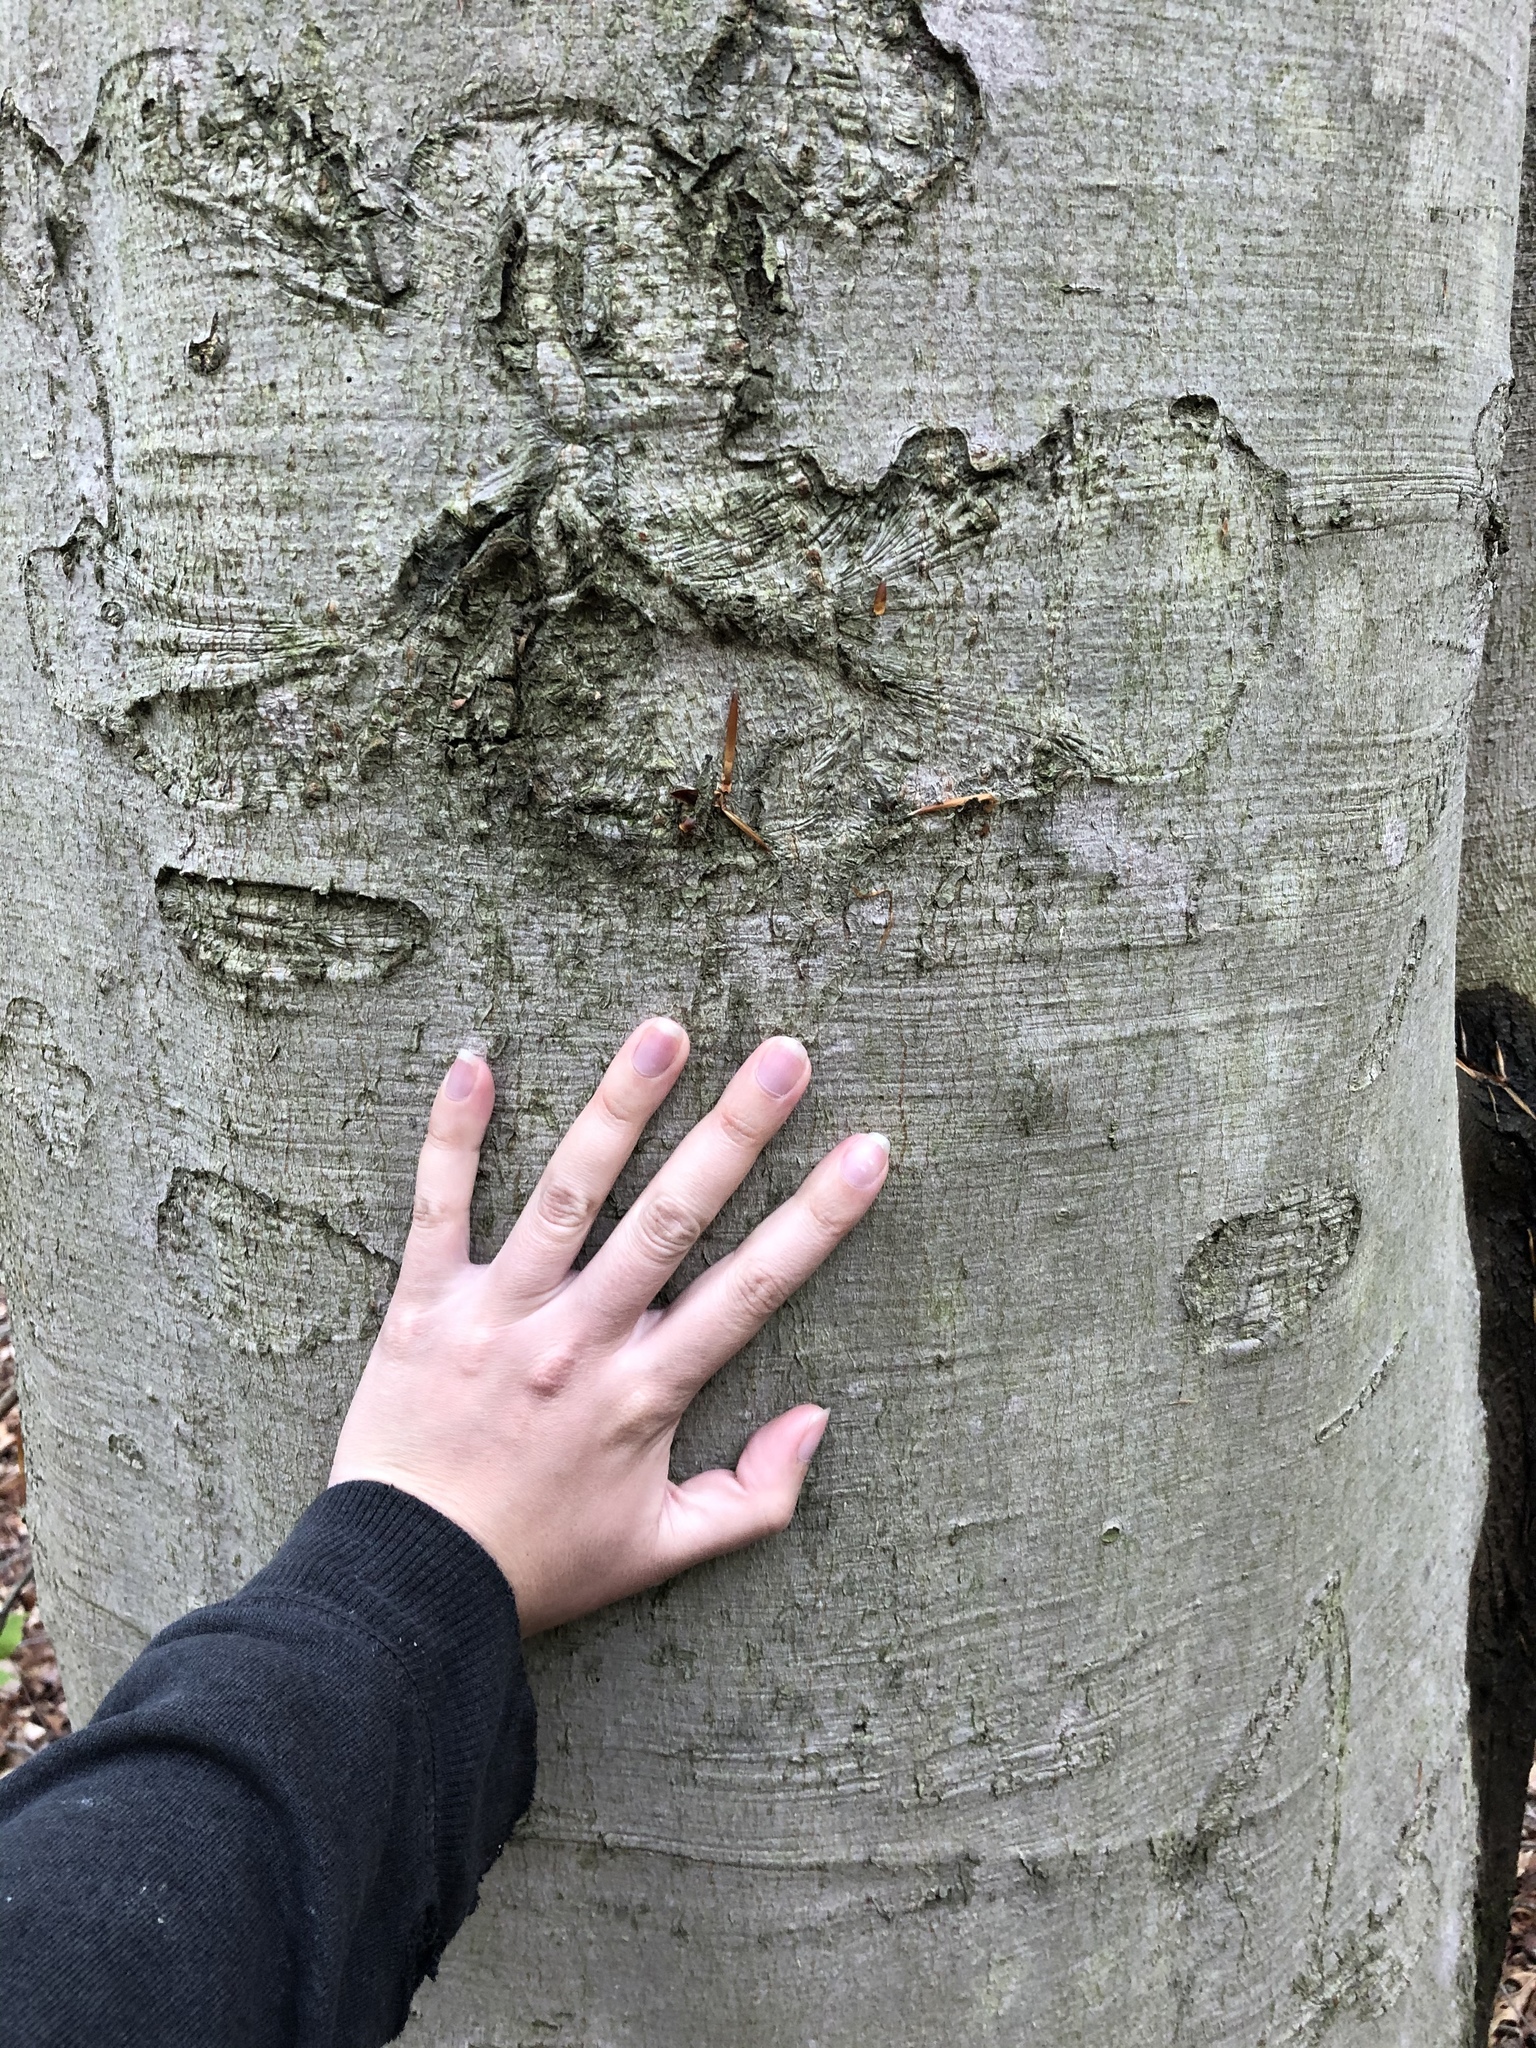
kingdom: Plantae
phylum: Tracheophyta
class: Magnoliopsida
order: Fagales
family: Fagaceae
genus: Fagus
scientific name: Fagus grandifolia
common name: American beech
